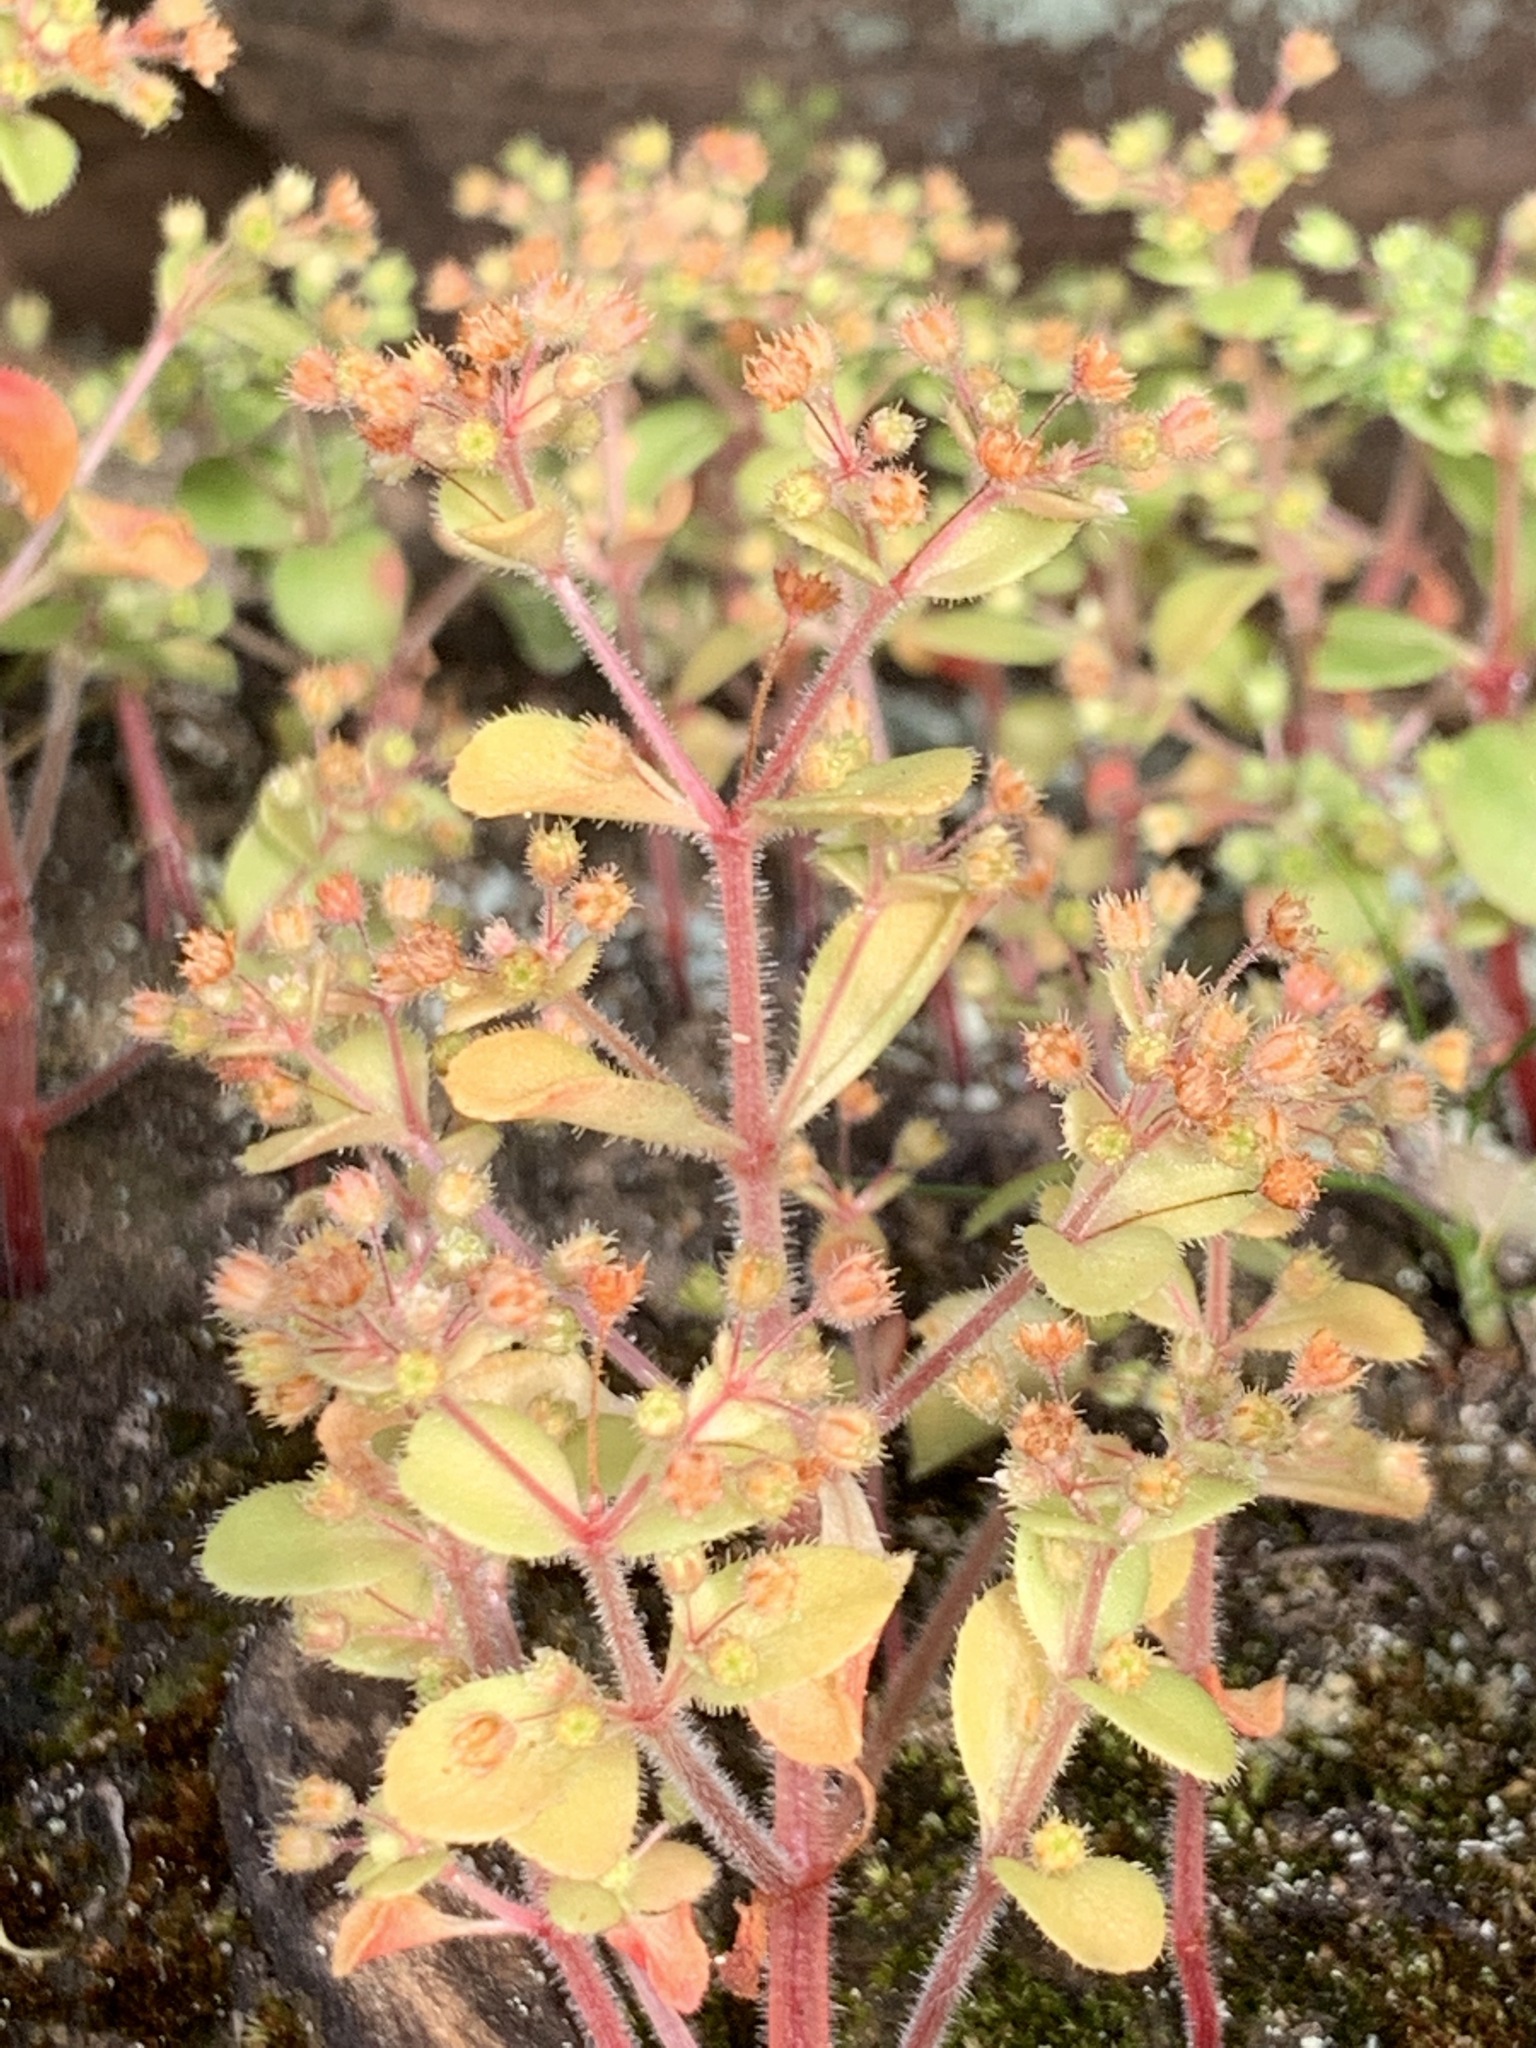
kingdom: Plantae
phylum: Tracheophyta
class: Magnoliopsida
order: Saxifragales
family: Crassulaceae
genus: Crassula
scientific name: Crassula strigosa
